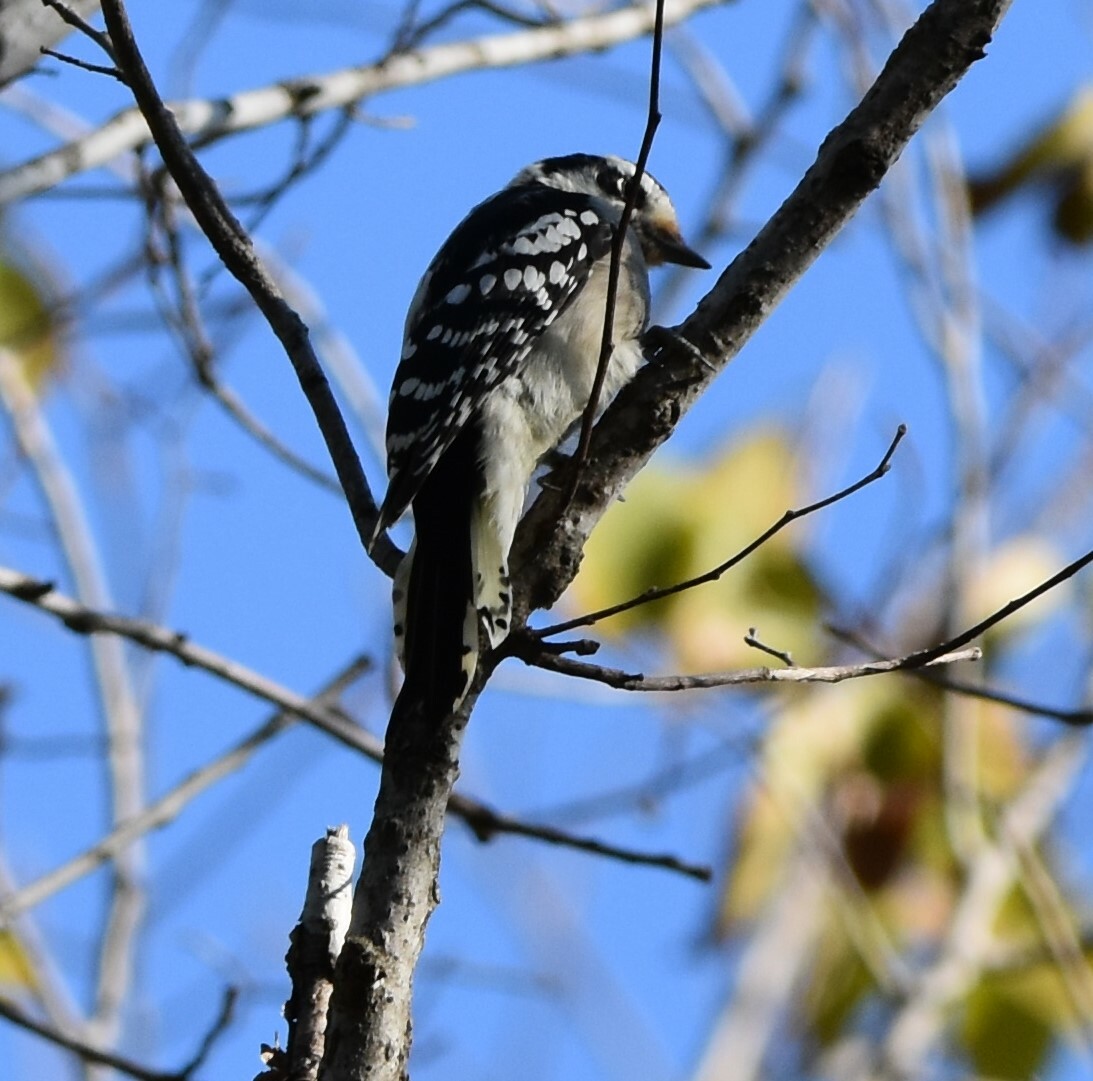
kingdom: Animalia
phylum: Chordata
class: Aves
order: Piciformes
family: Picidae
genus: Dryobates
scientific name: Dryobates pubescens
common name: Downy woodpecker
